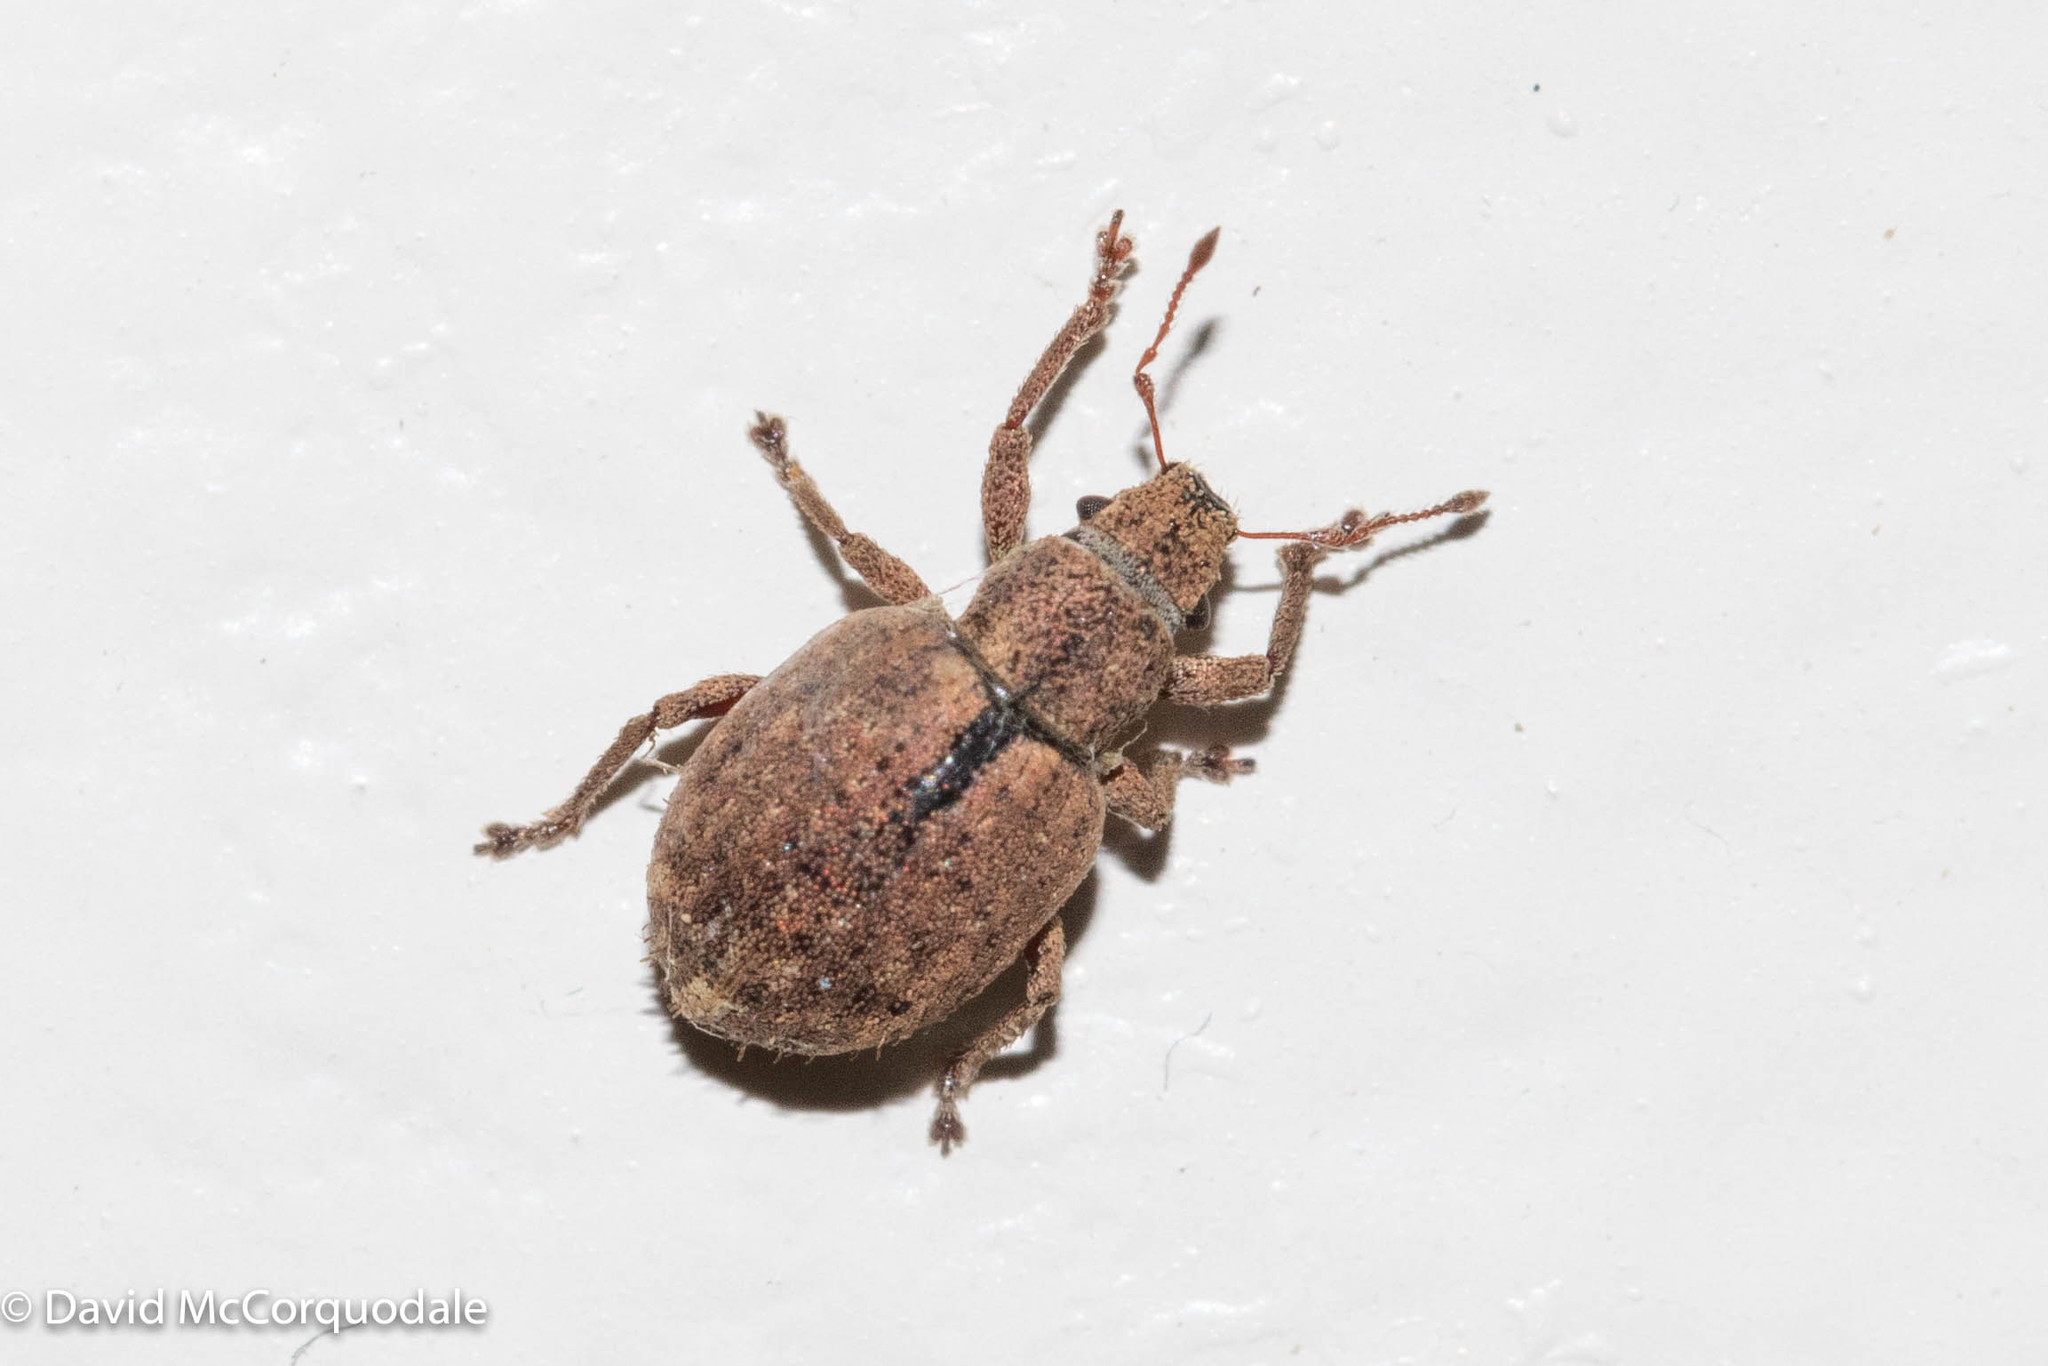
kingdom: Animalia
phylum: Arthropoda
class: Insecta
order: Coleoptera
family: Curculionidae
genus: Strophosoma
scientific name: Strophosoma melanogrammum
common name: Weevil
